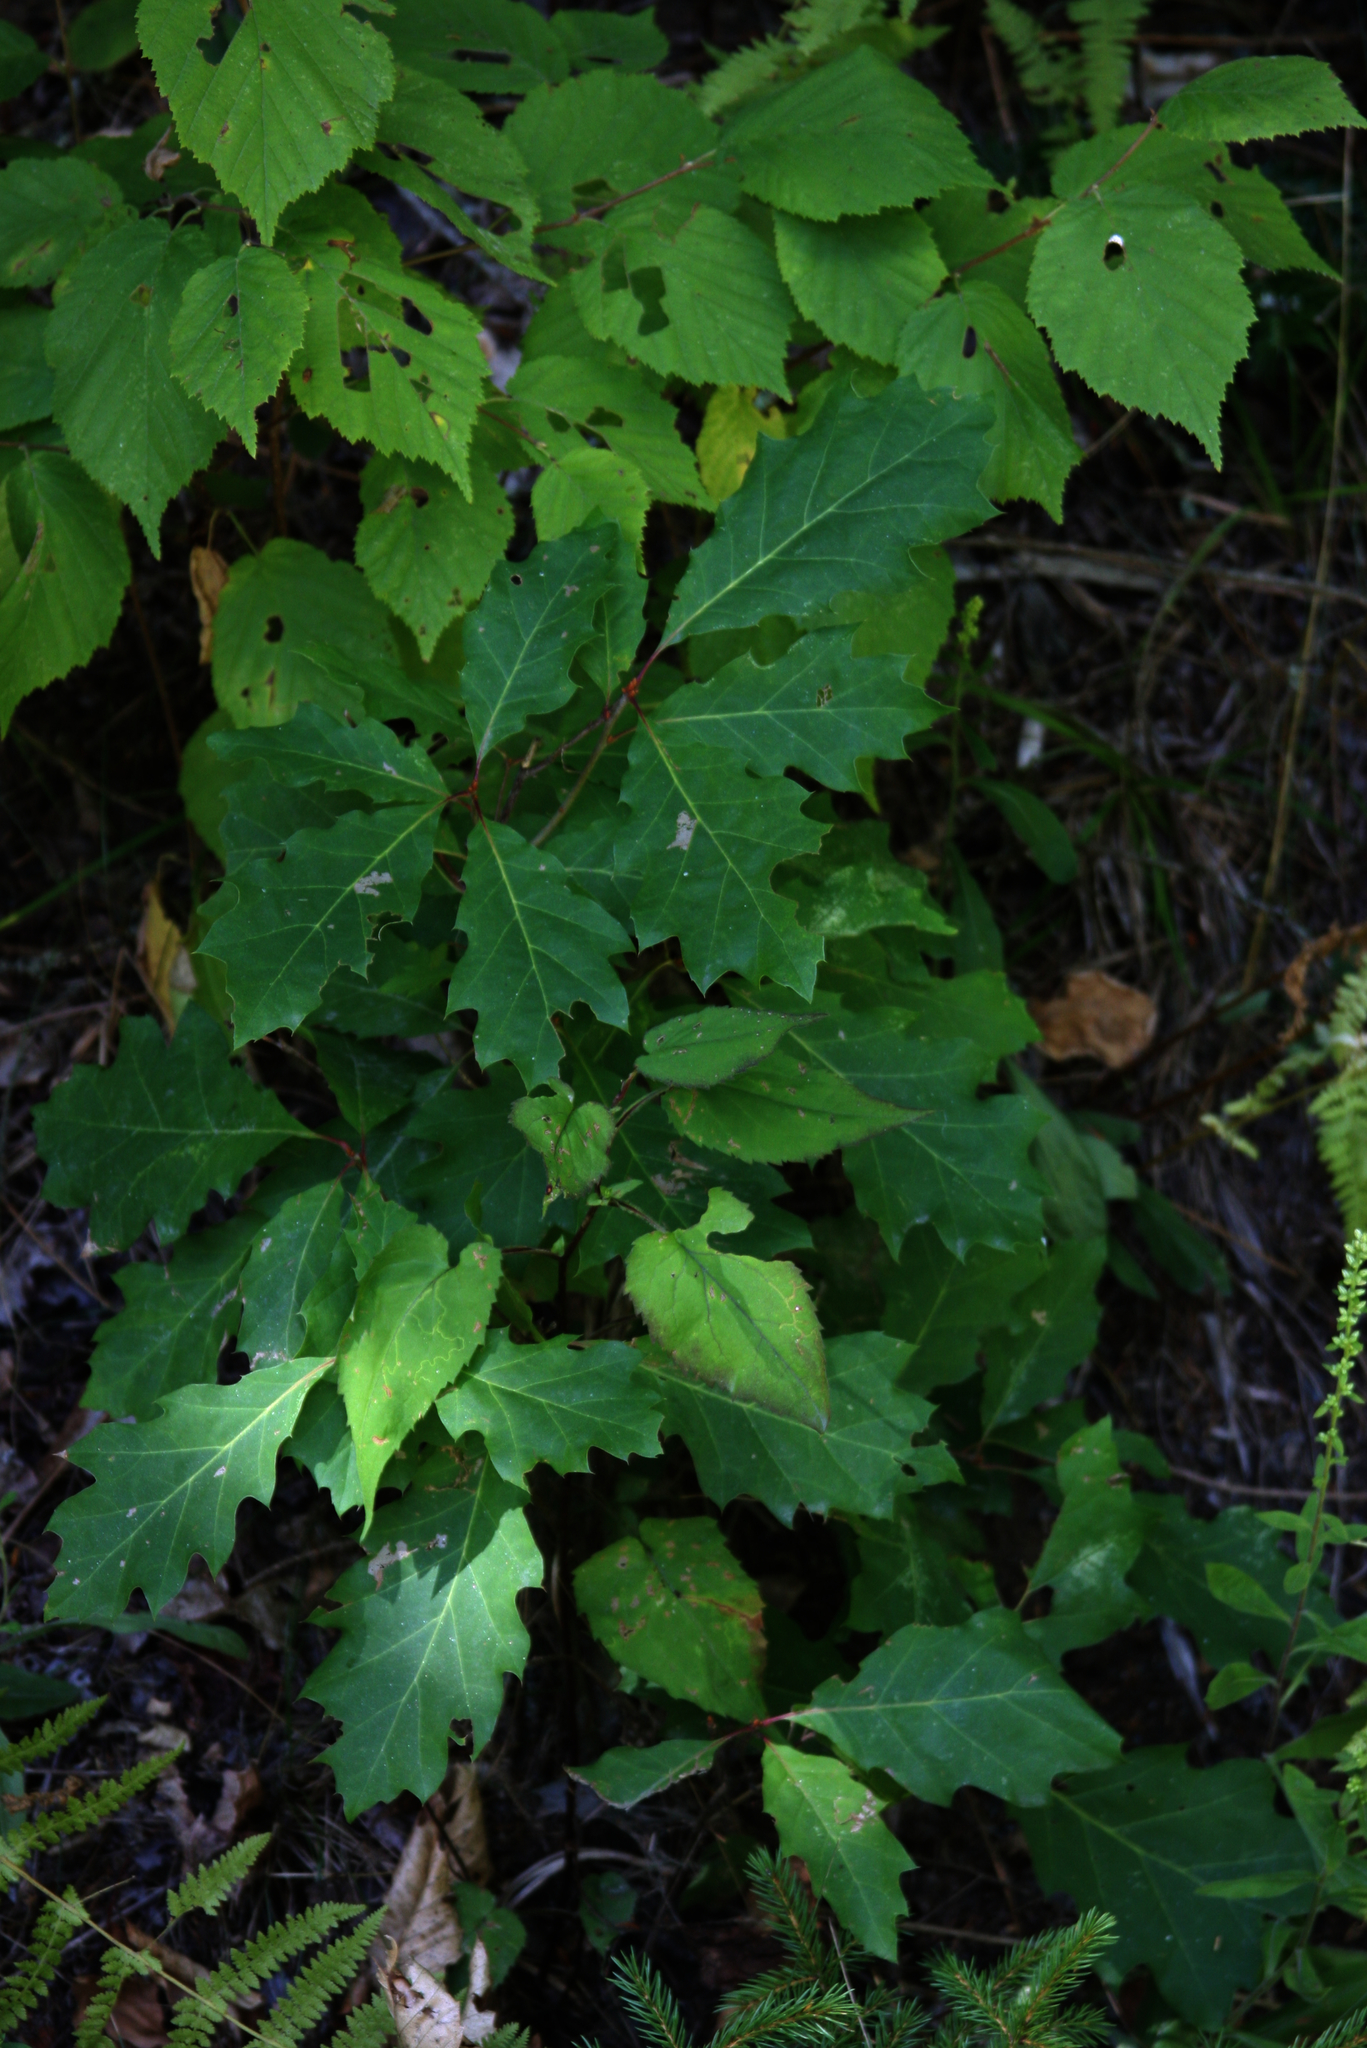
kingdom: Plantae
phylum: Tracheophyta
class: Magnoliopsida
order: Fagales
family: Fagaceae
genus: Quercus
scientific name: Quercus rubra
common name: Red oak
